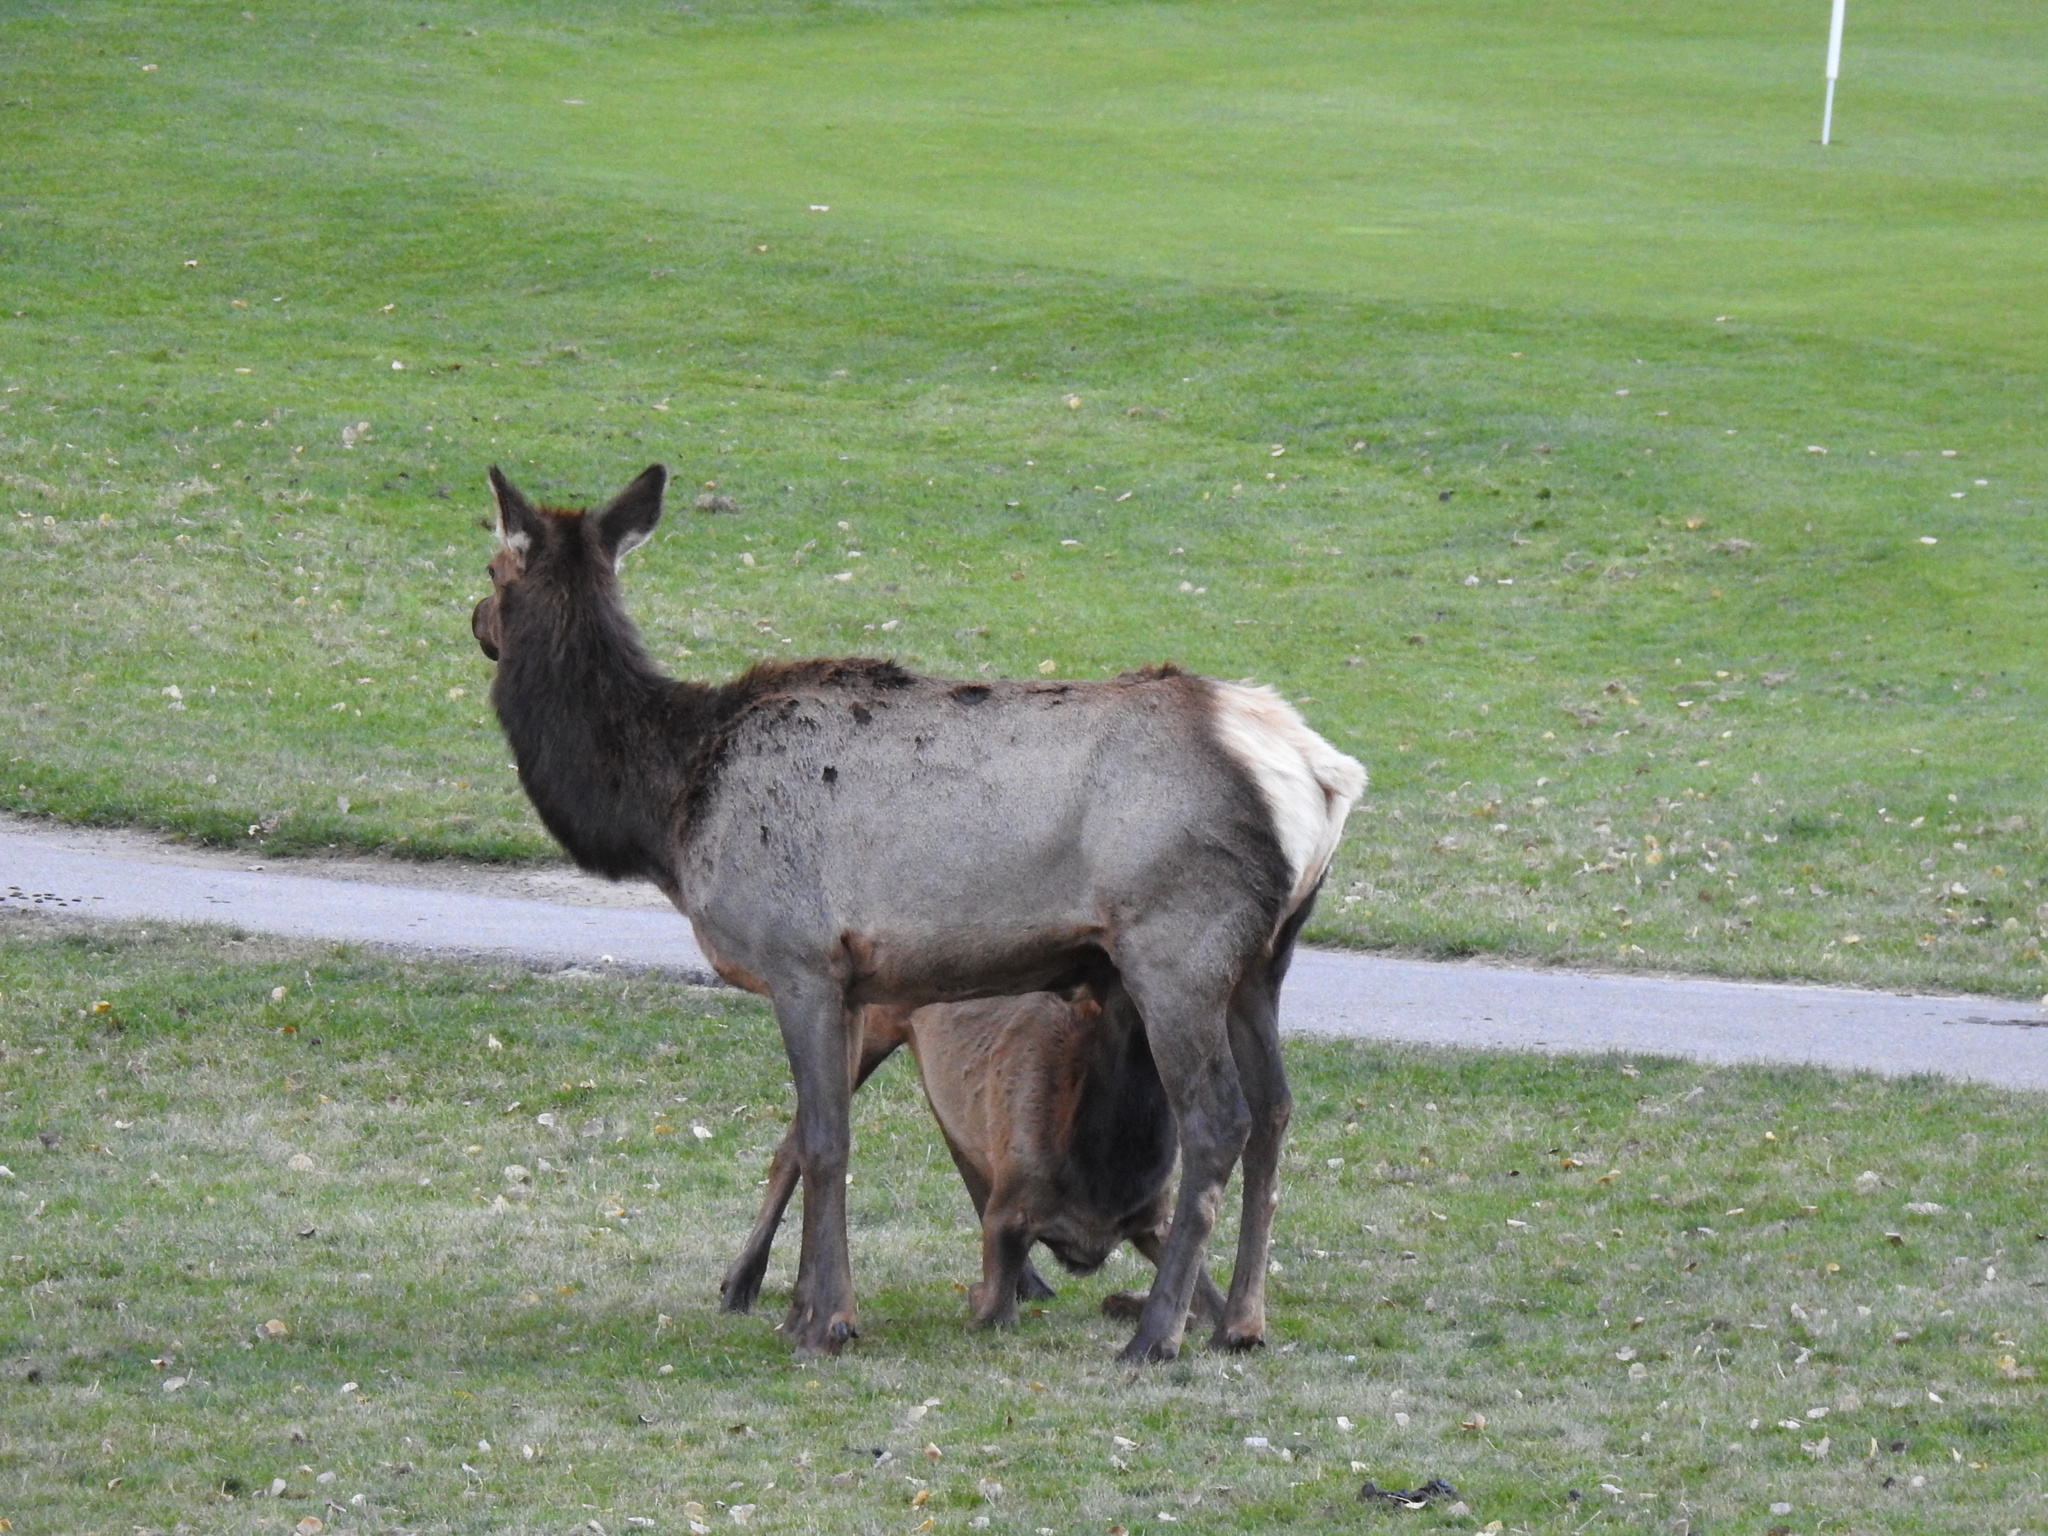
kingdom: Animalia
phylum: Chordata
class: Mammalia
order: Artiodactyla
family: Cervidae
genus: Cervus
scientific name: Cervus elaphus
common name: Red deer
